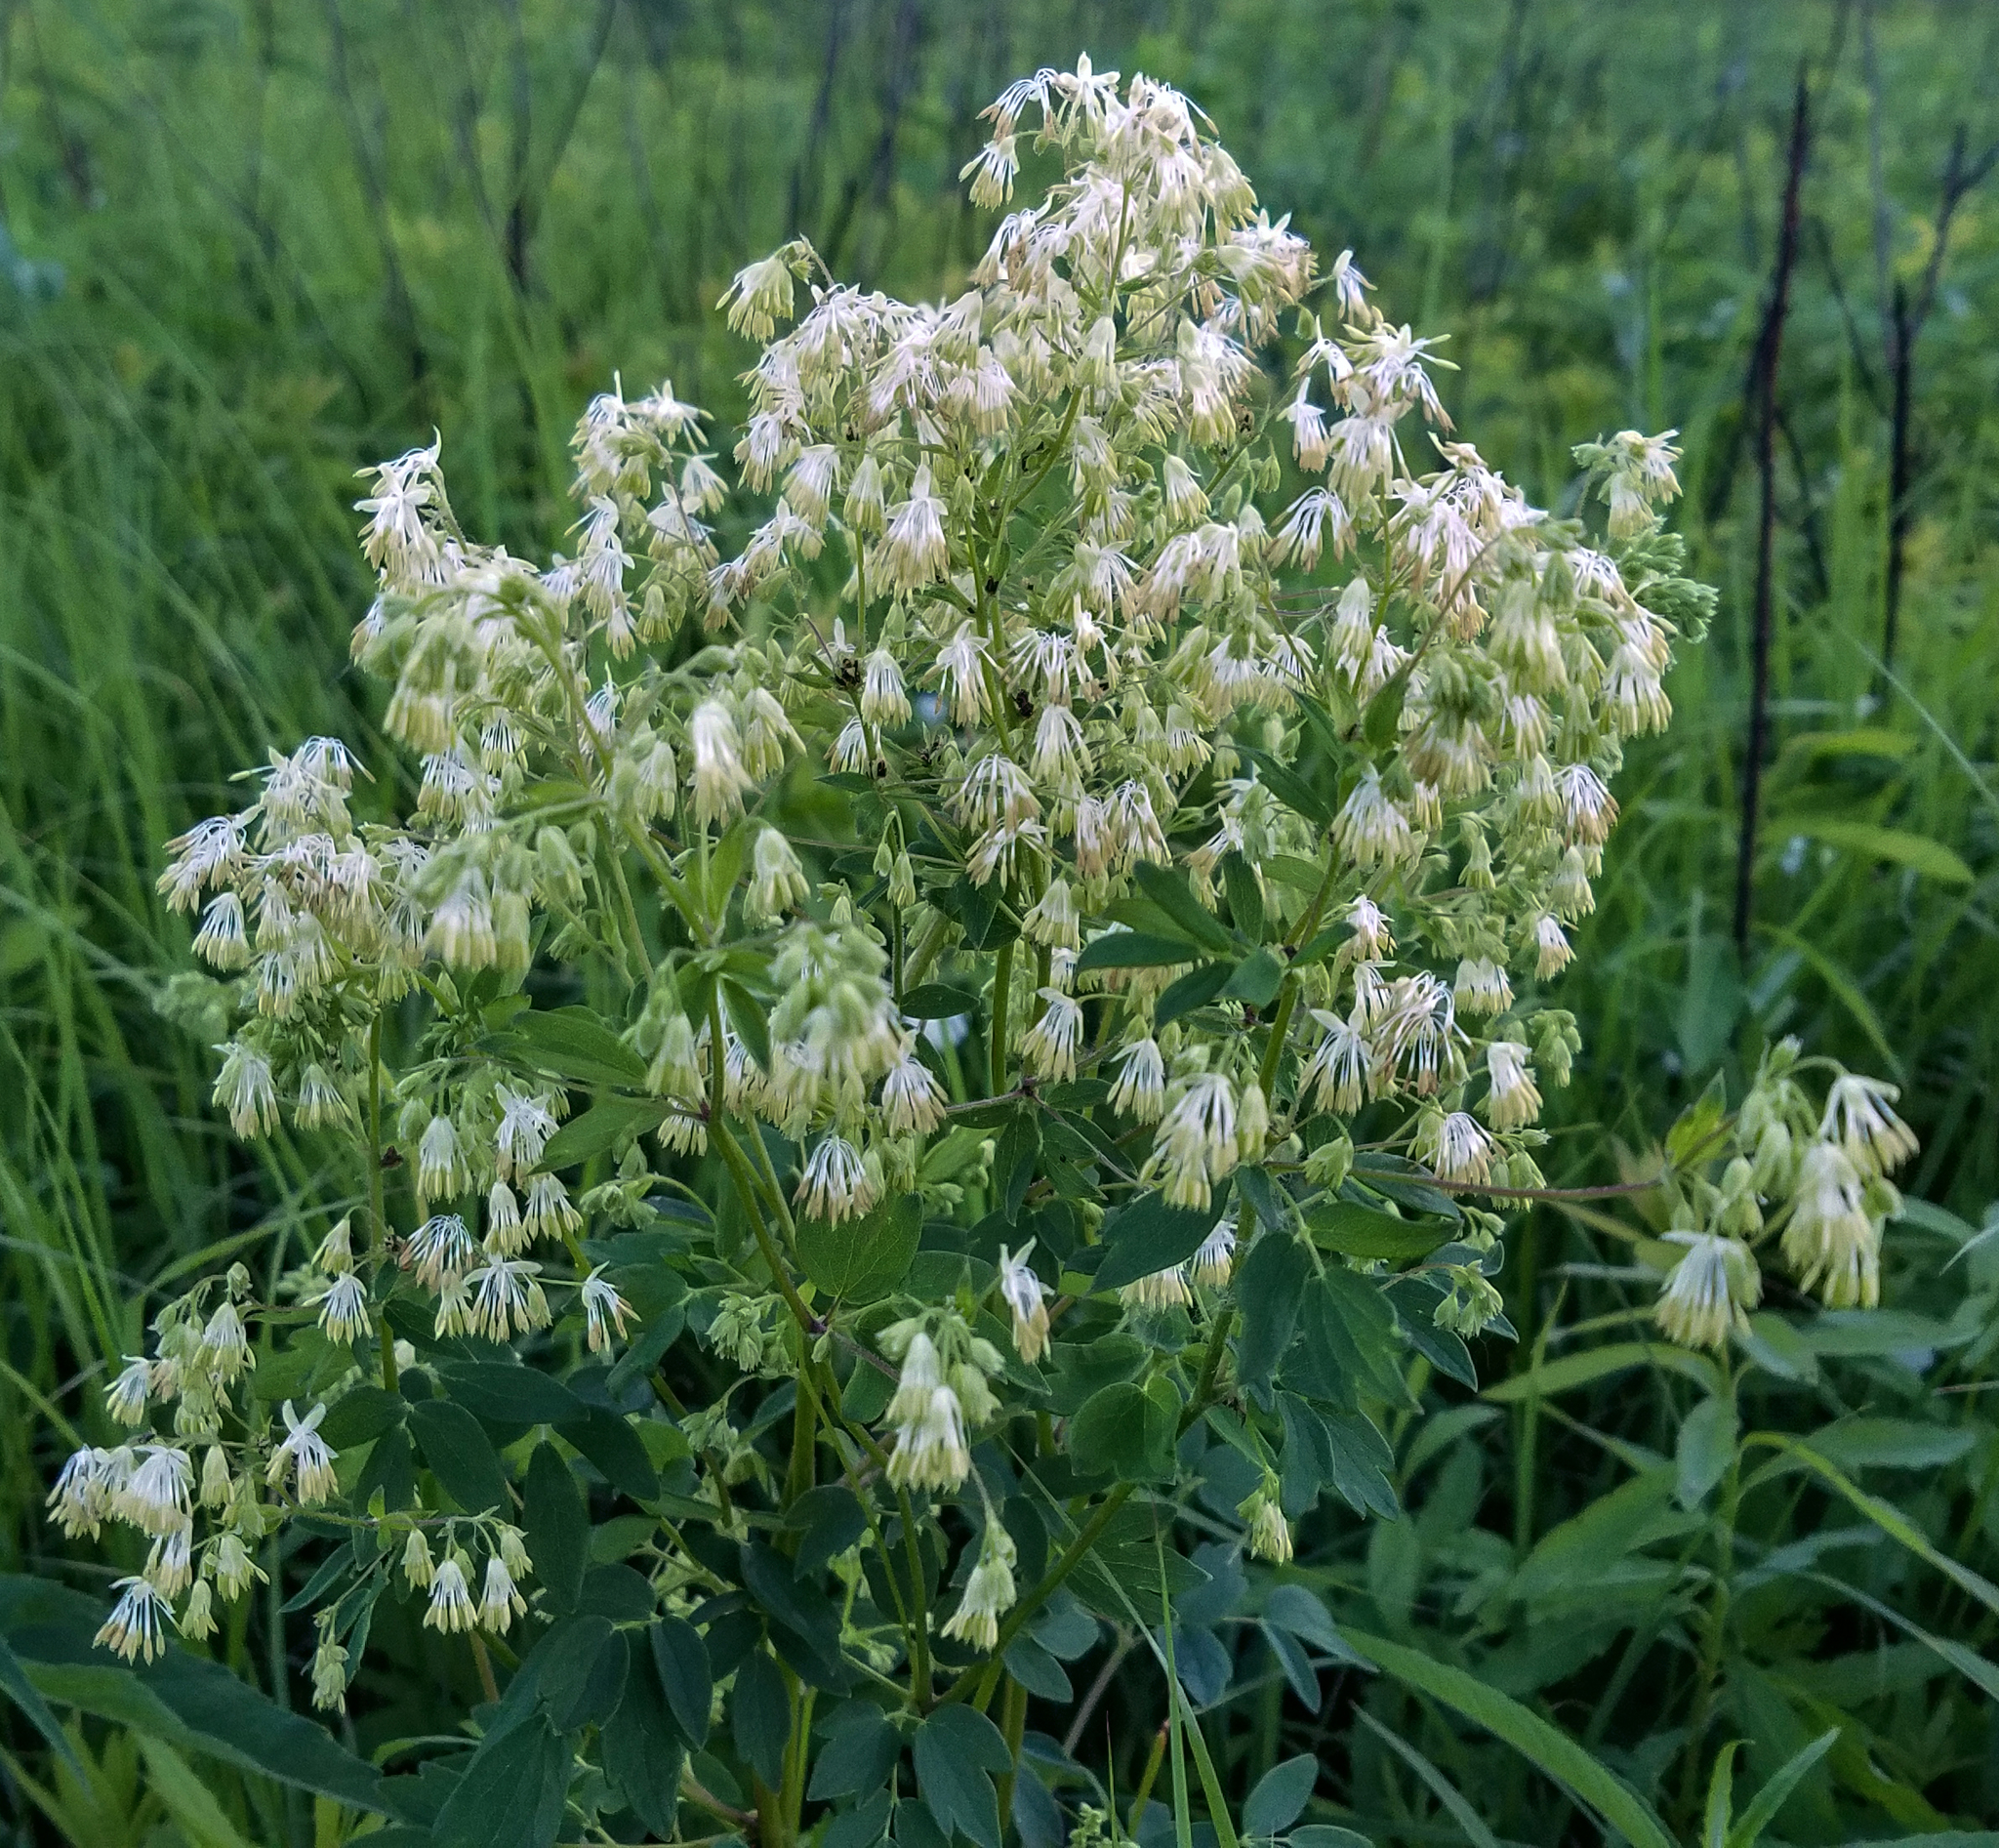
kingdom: Plantae
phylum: Tracheophyta
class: Magnoliopsida
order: Ranunculales
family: Ranunculaceae
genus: Thalictrum
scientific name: Thalictrum dasycarpum
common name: Purple meadow-rue
